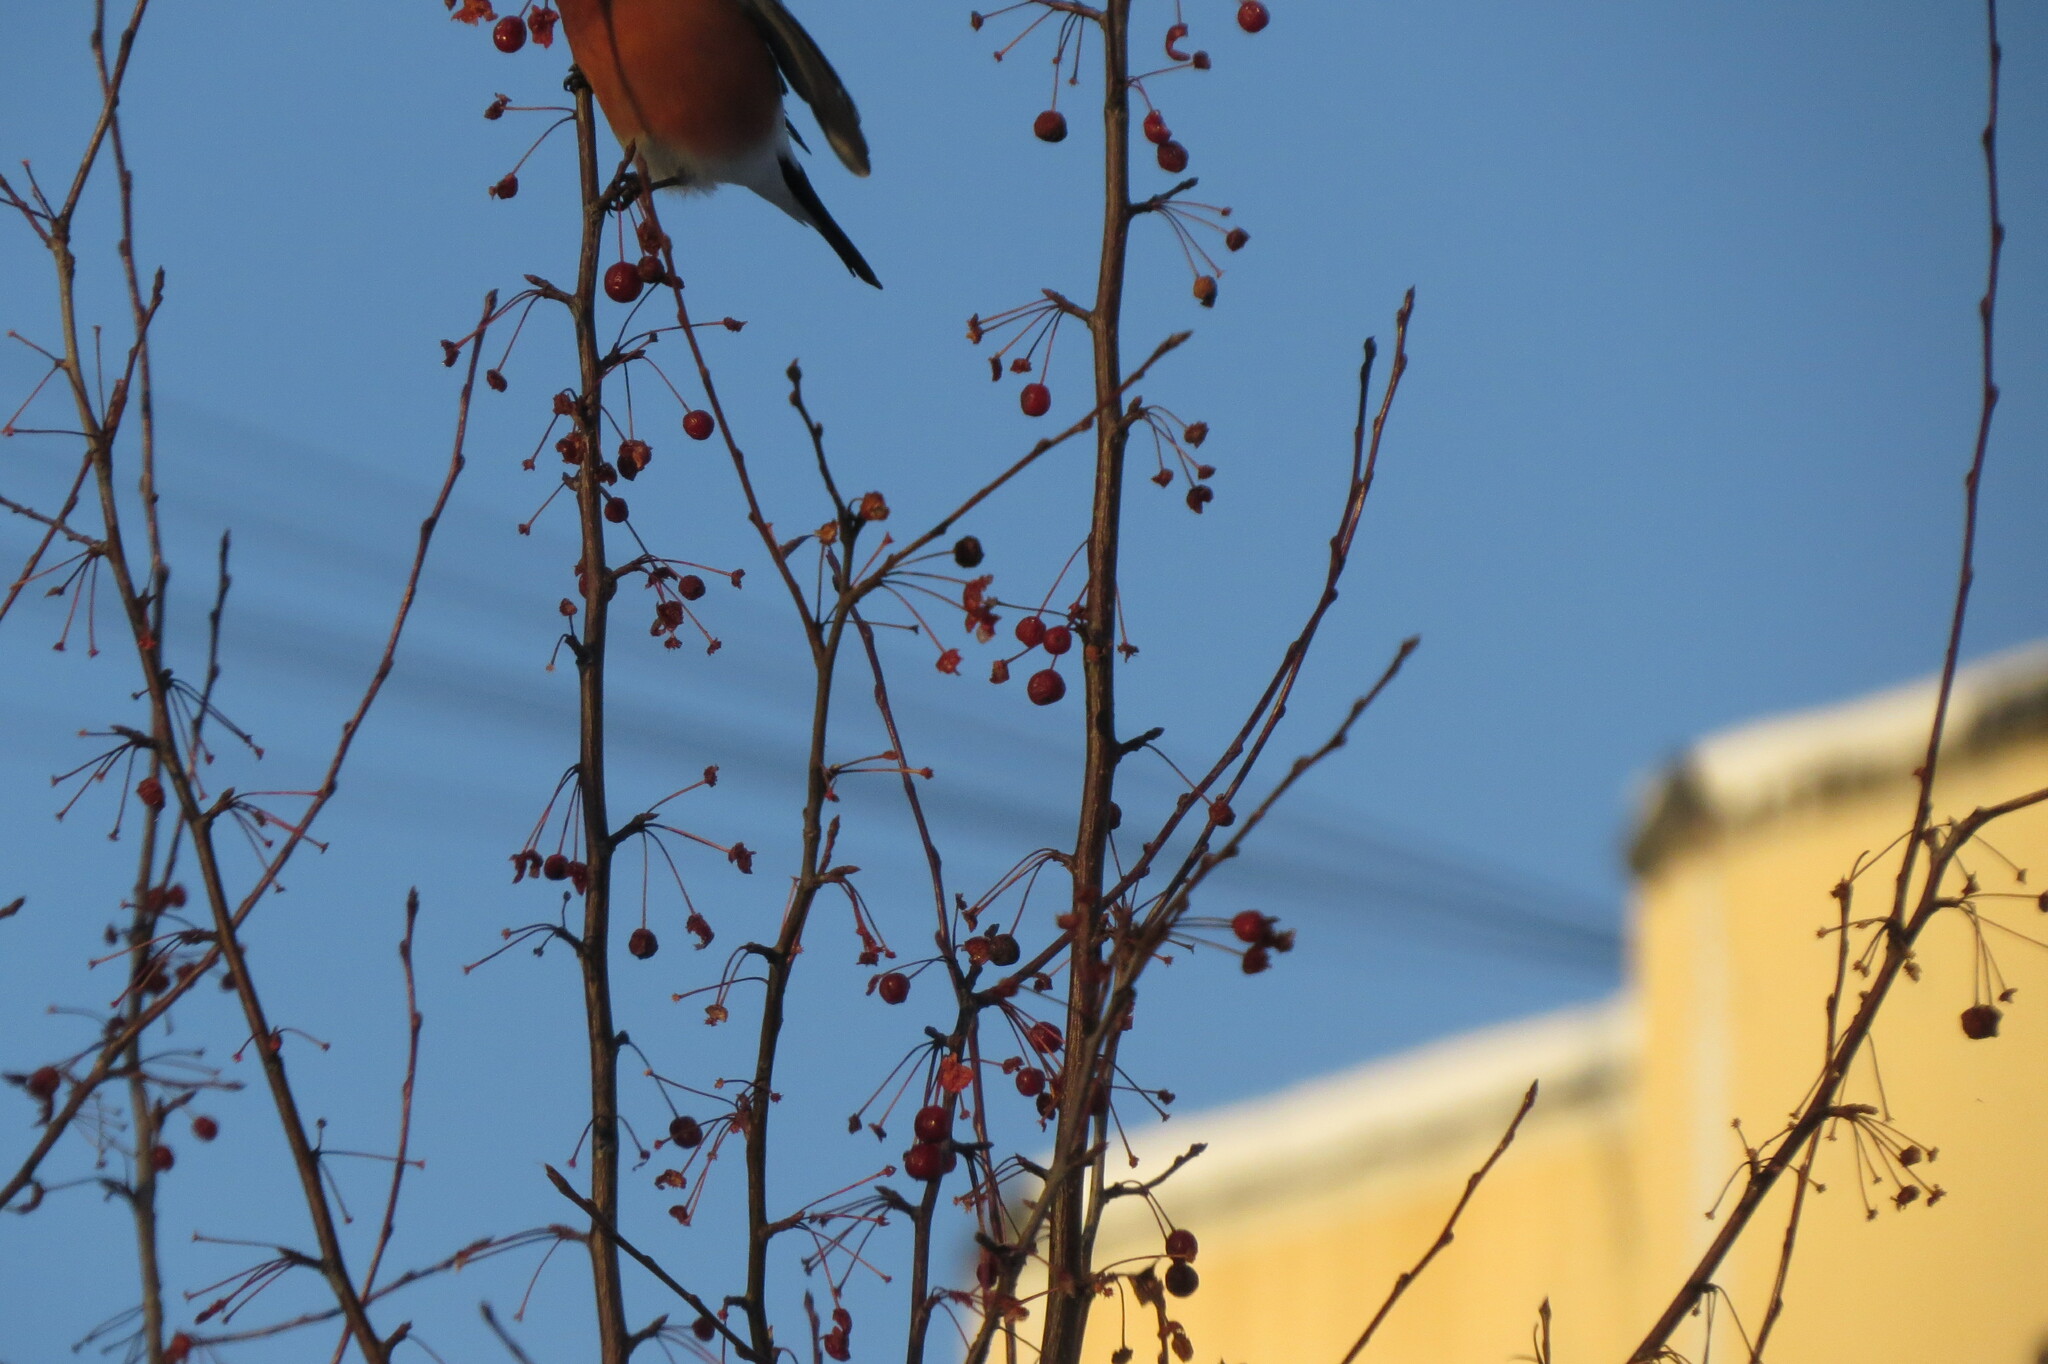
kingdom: Animalia
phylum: Chordata
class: Aves
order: Passeriformes
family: Fringillidae
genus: Pyrrhula
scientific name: Pyrrhula pyrrhula
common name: Eurasian bullfinch
